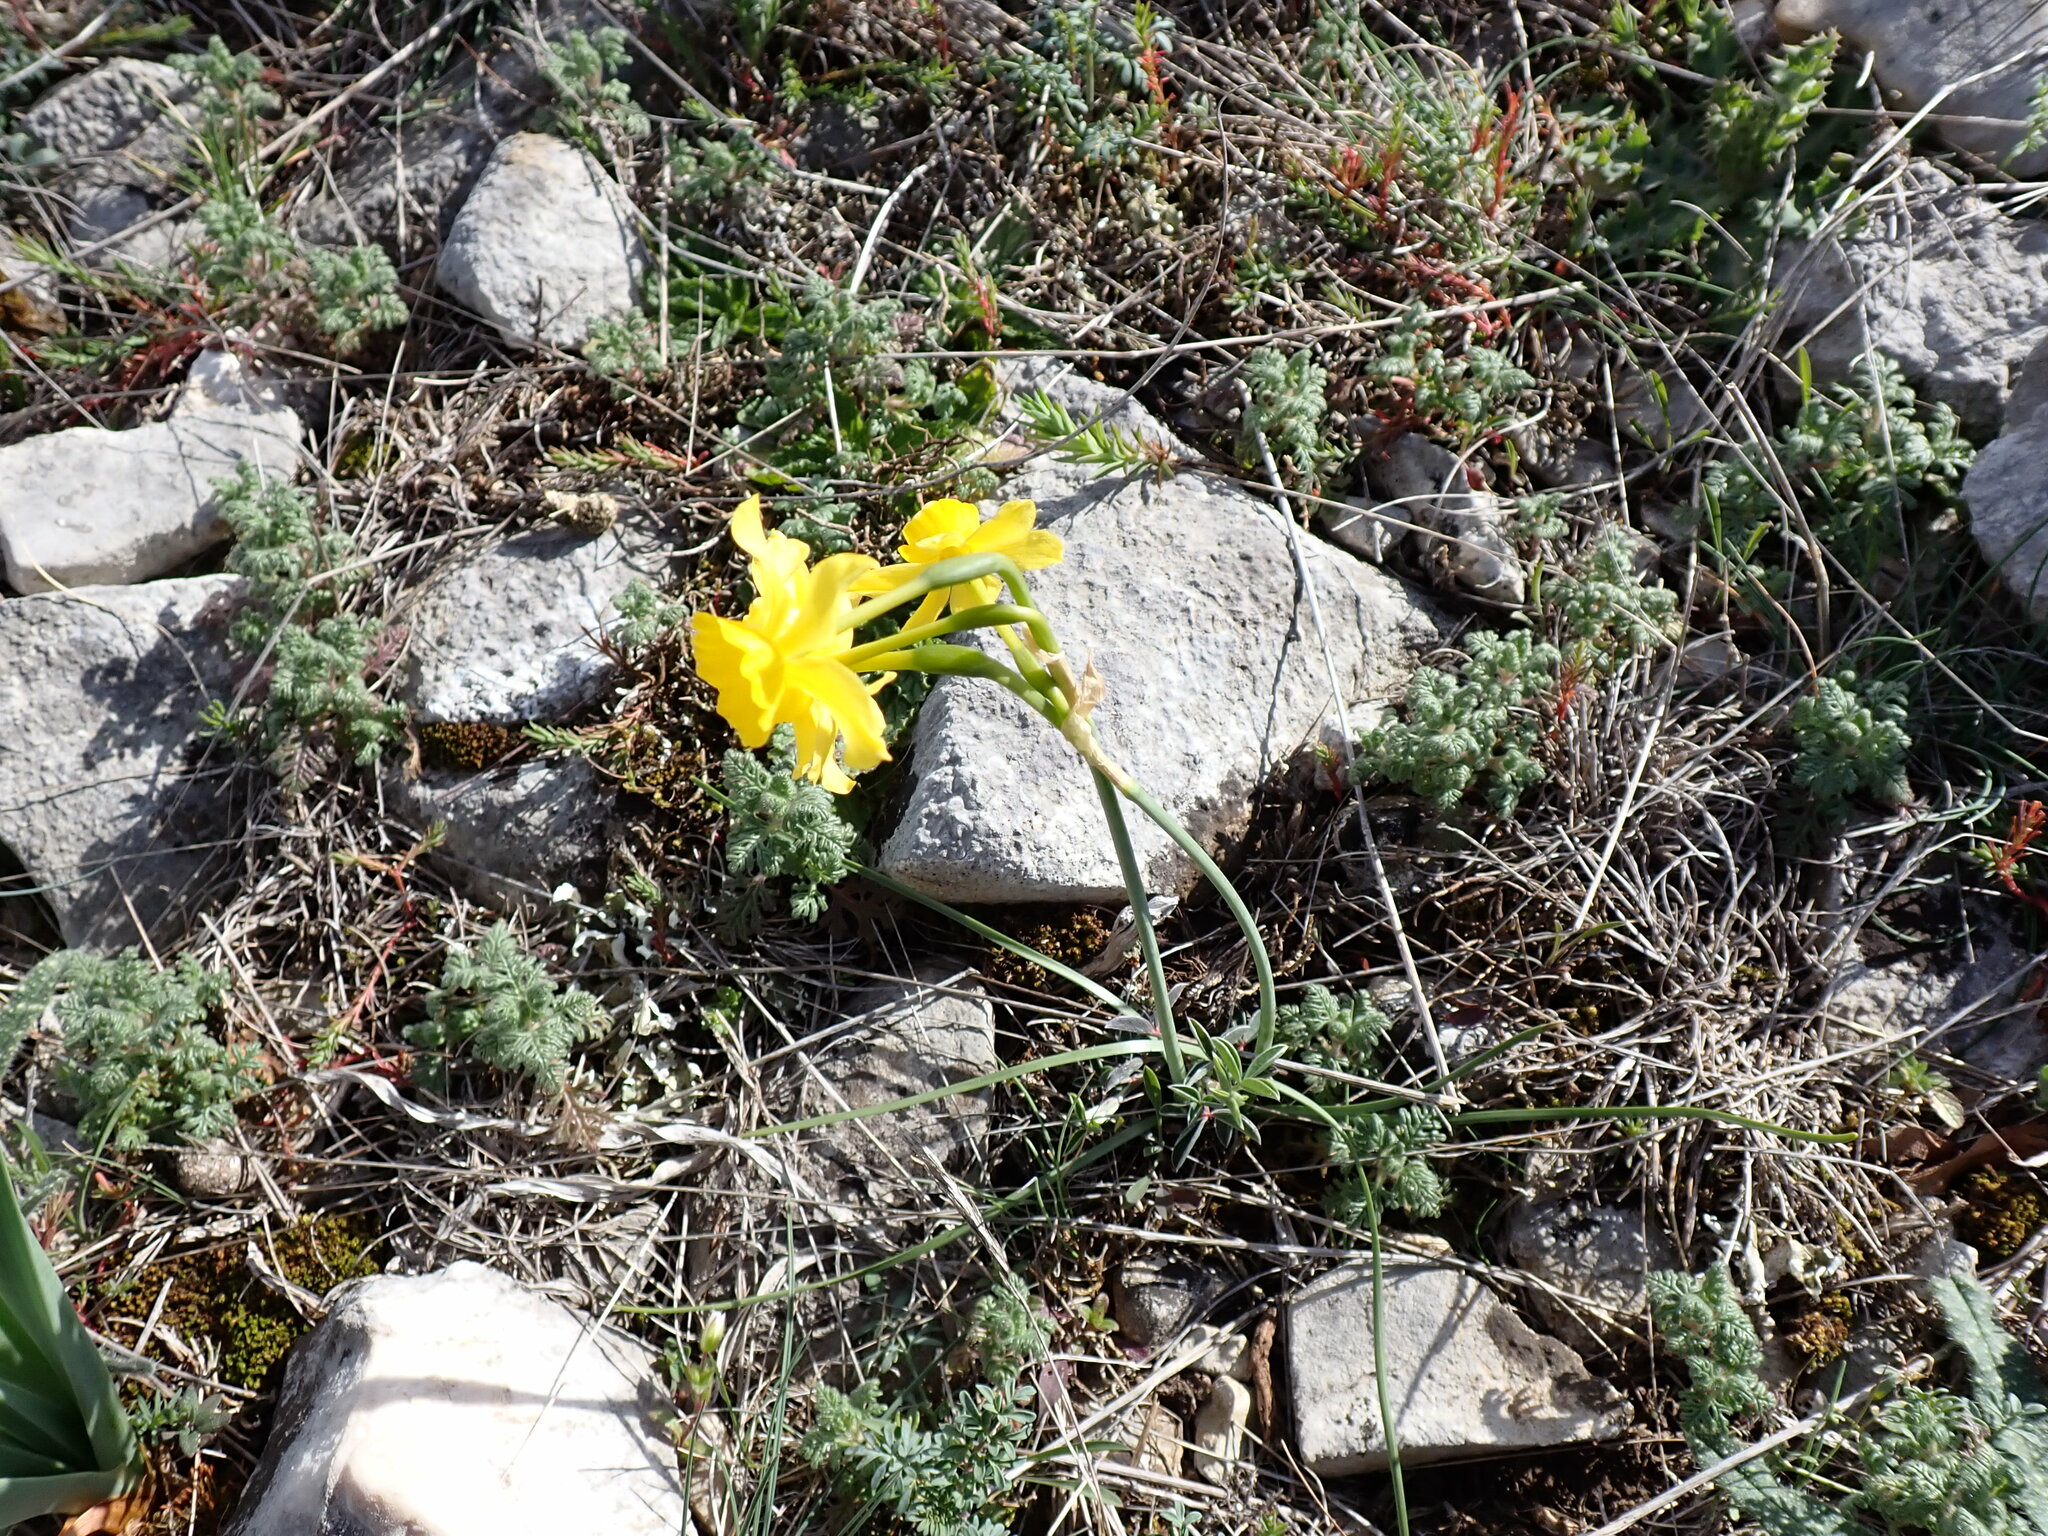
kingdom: Plantae
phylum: Tracheophyta
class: Liliopsida
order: Asparagales
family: Amaryllidaceae
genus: Narcissus
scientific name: Narcissus assoanus
